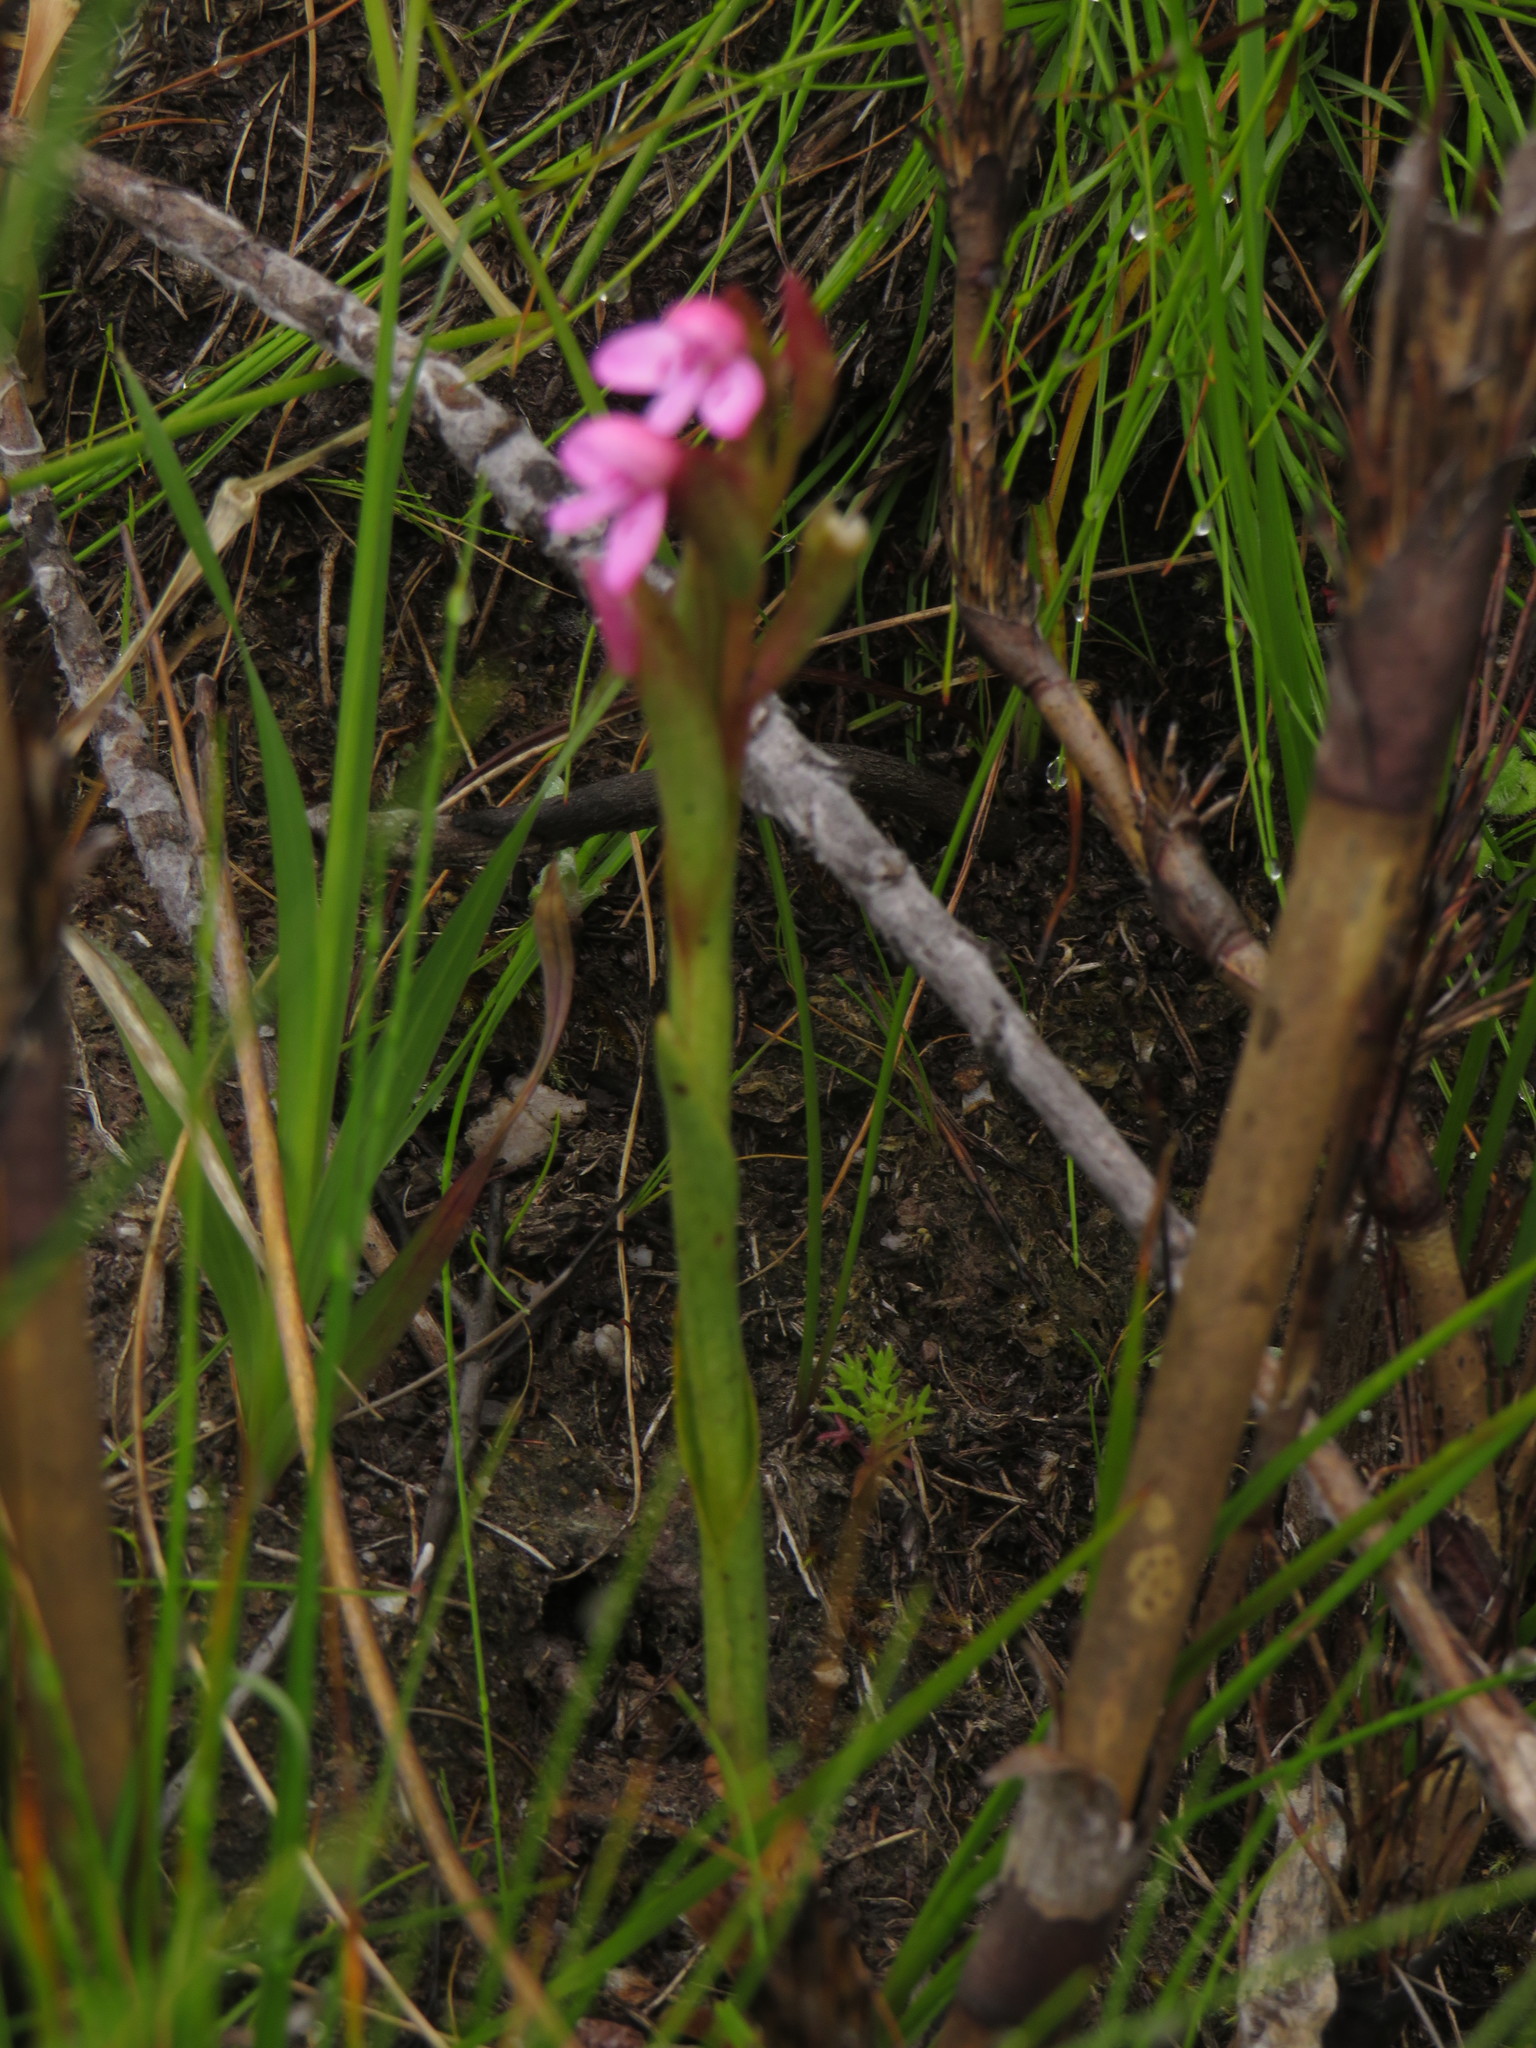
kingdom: Plantae
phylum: Tracheophyta
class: Liliopsida
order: Asparagales
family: Orchidaceae
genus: Disa
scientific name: Disa vaginata
